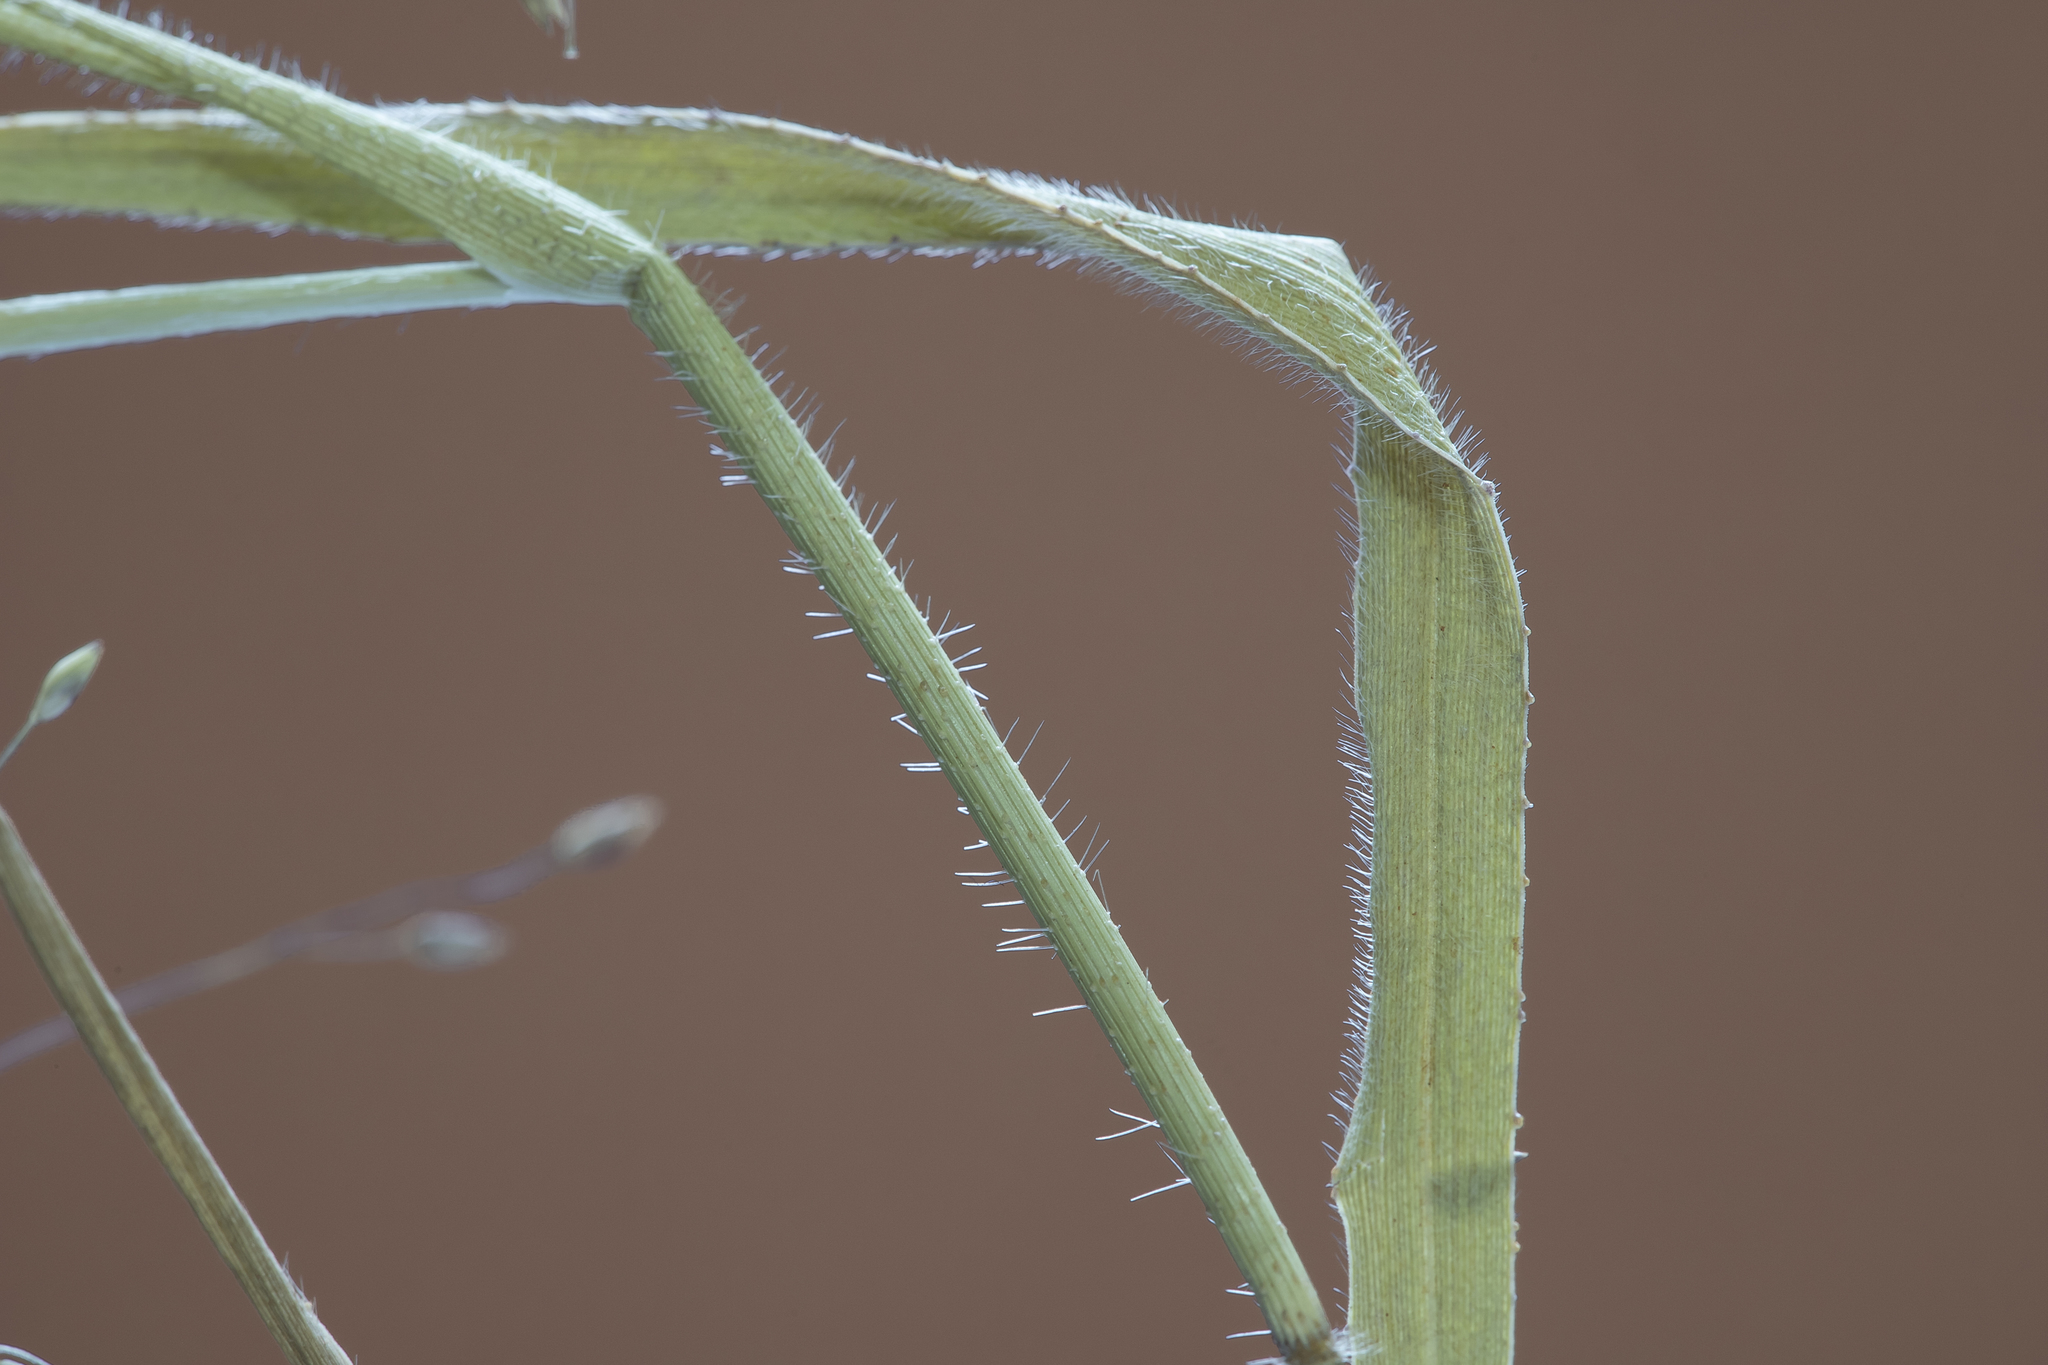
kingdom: Plantae
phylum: Tracheophyta
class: Liliopsida
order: Poales
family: Poaceae
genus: Panicum
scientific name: Panicum effusum
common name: Hairy panic grass
